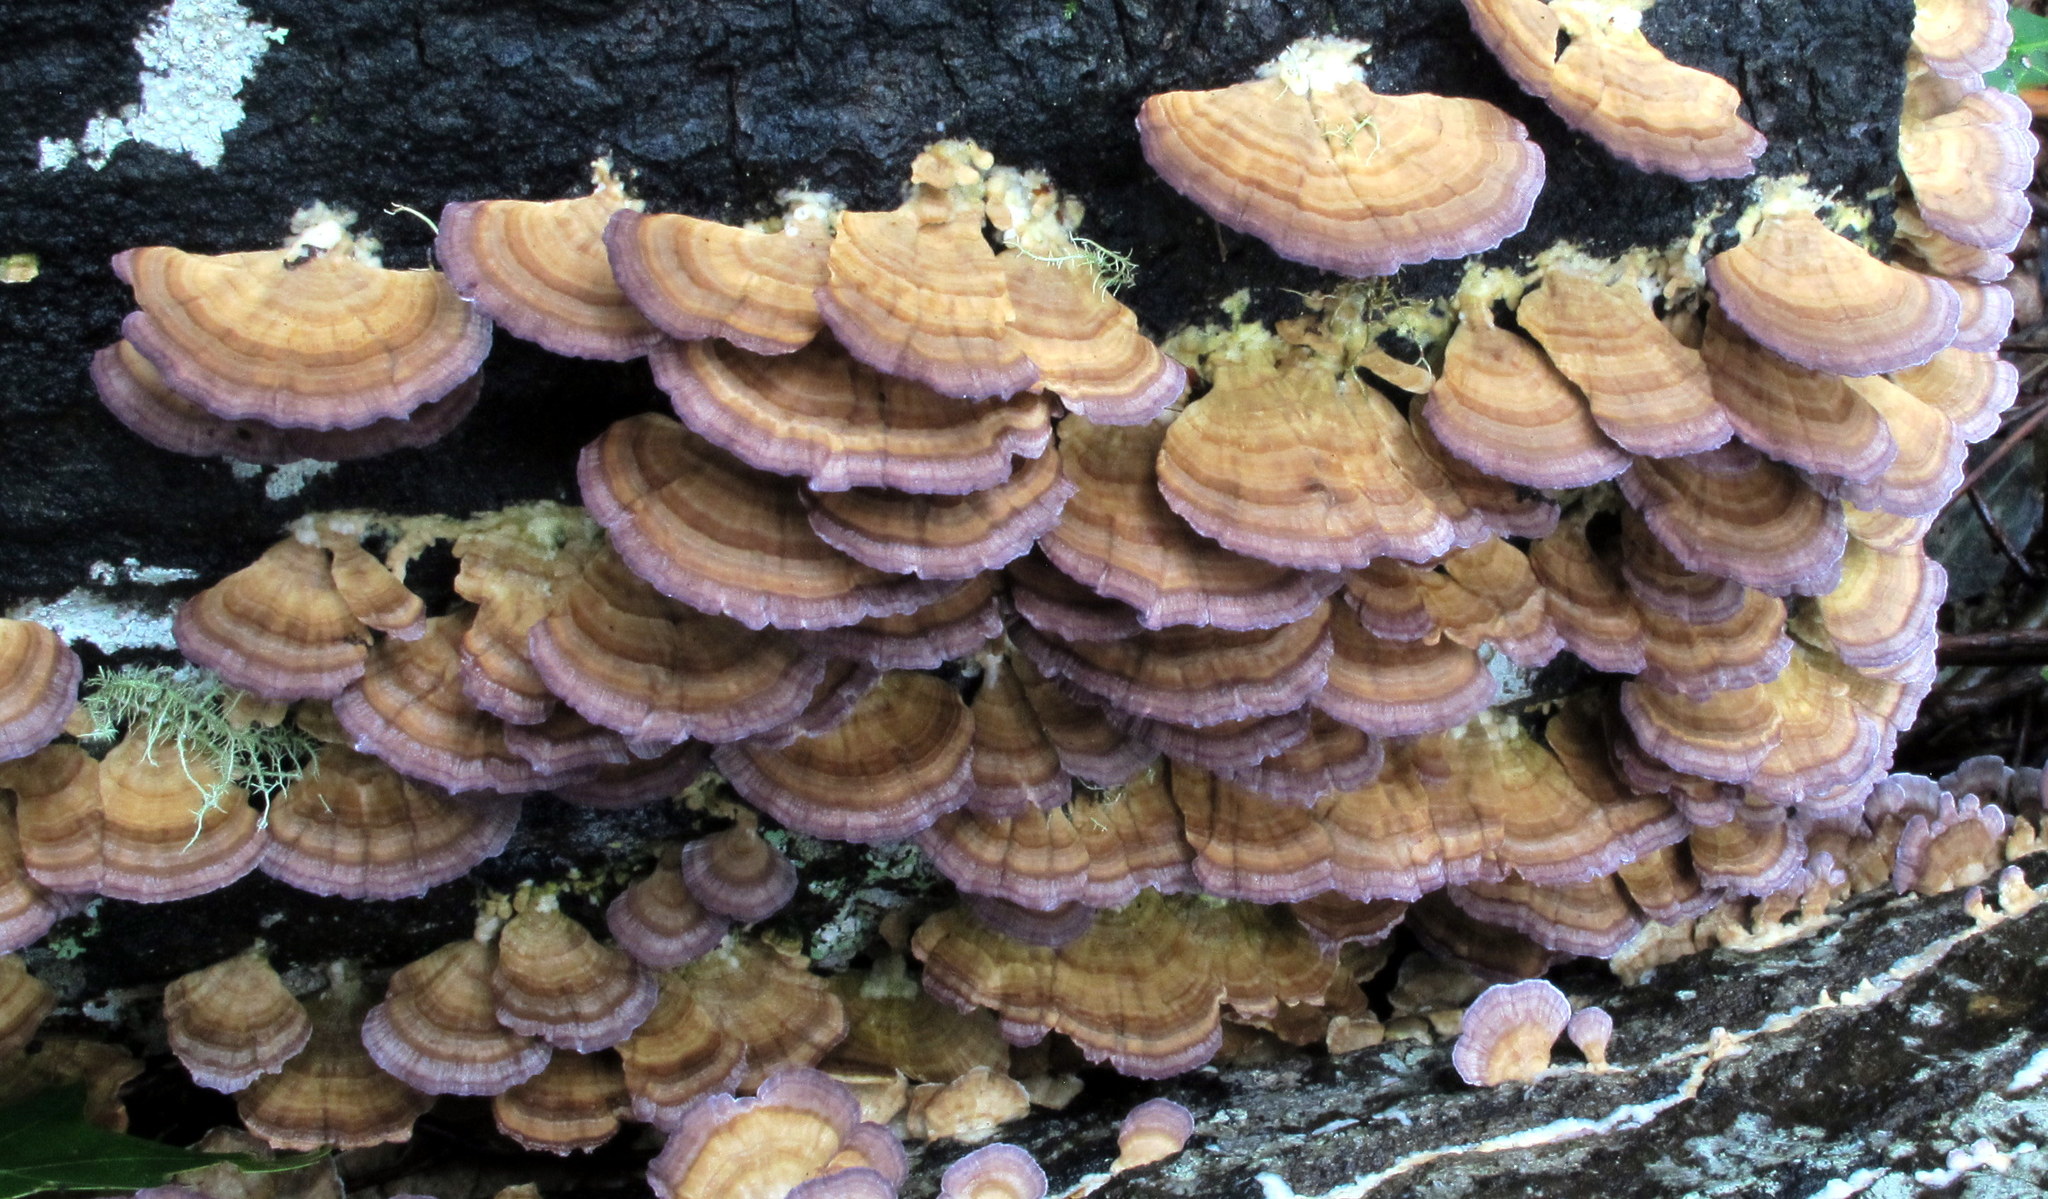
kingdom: Fungi
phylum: Basidiomycota
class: Agaricomycetes
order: Hymenochaetales
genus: Trichaptum
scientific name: Trichaptum biforme
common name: Violet-toothed polypore
